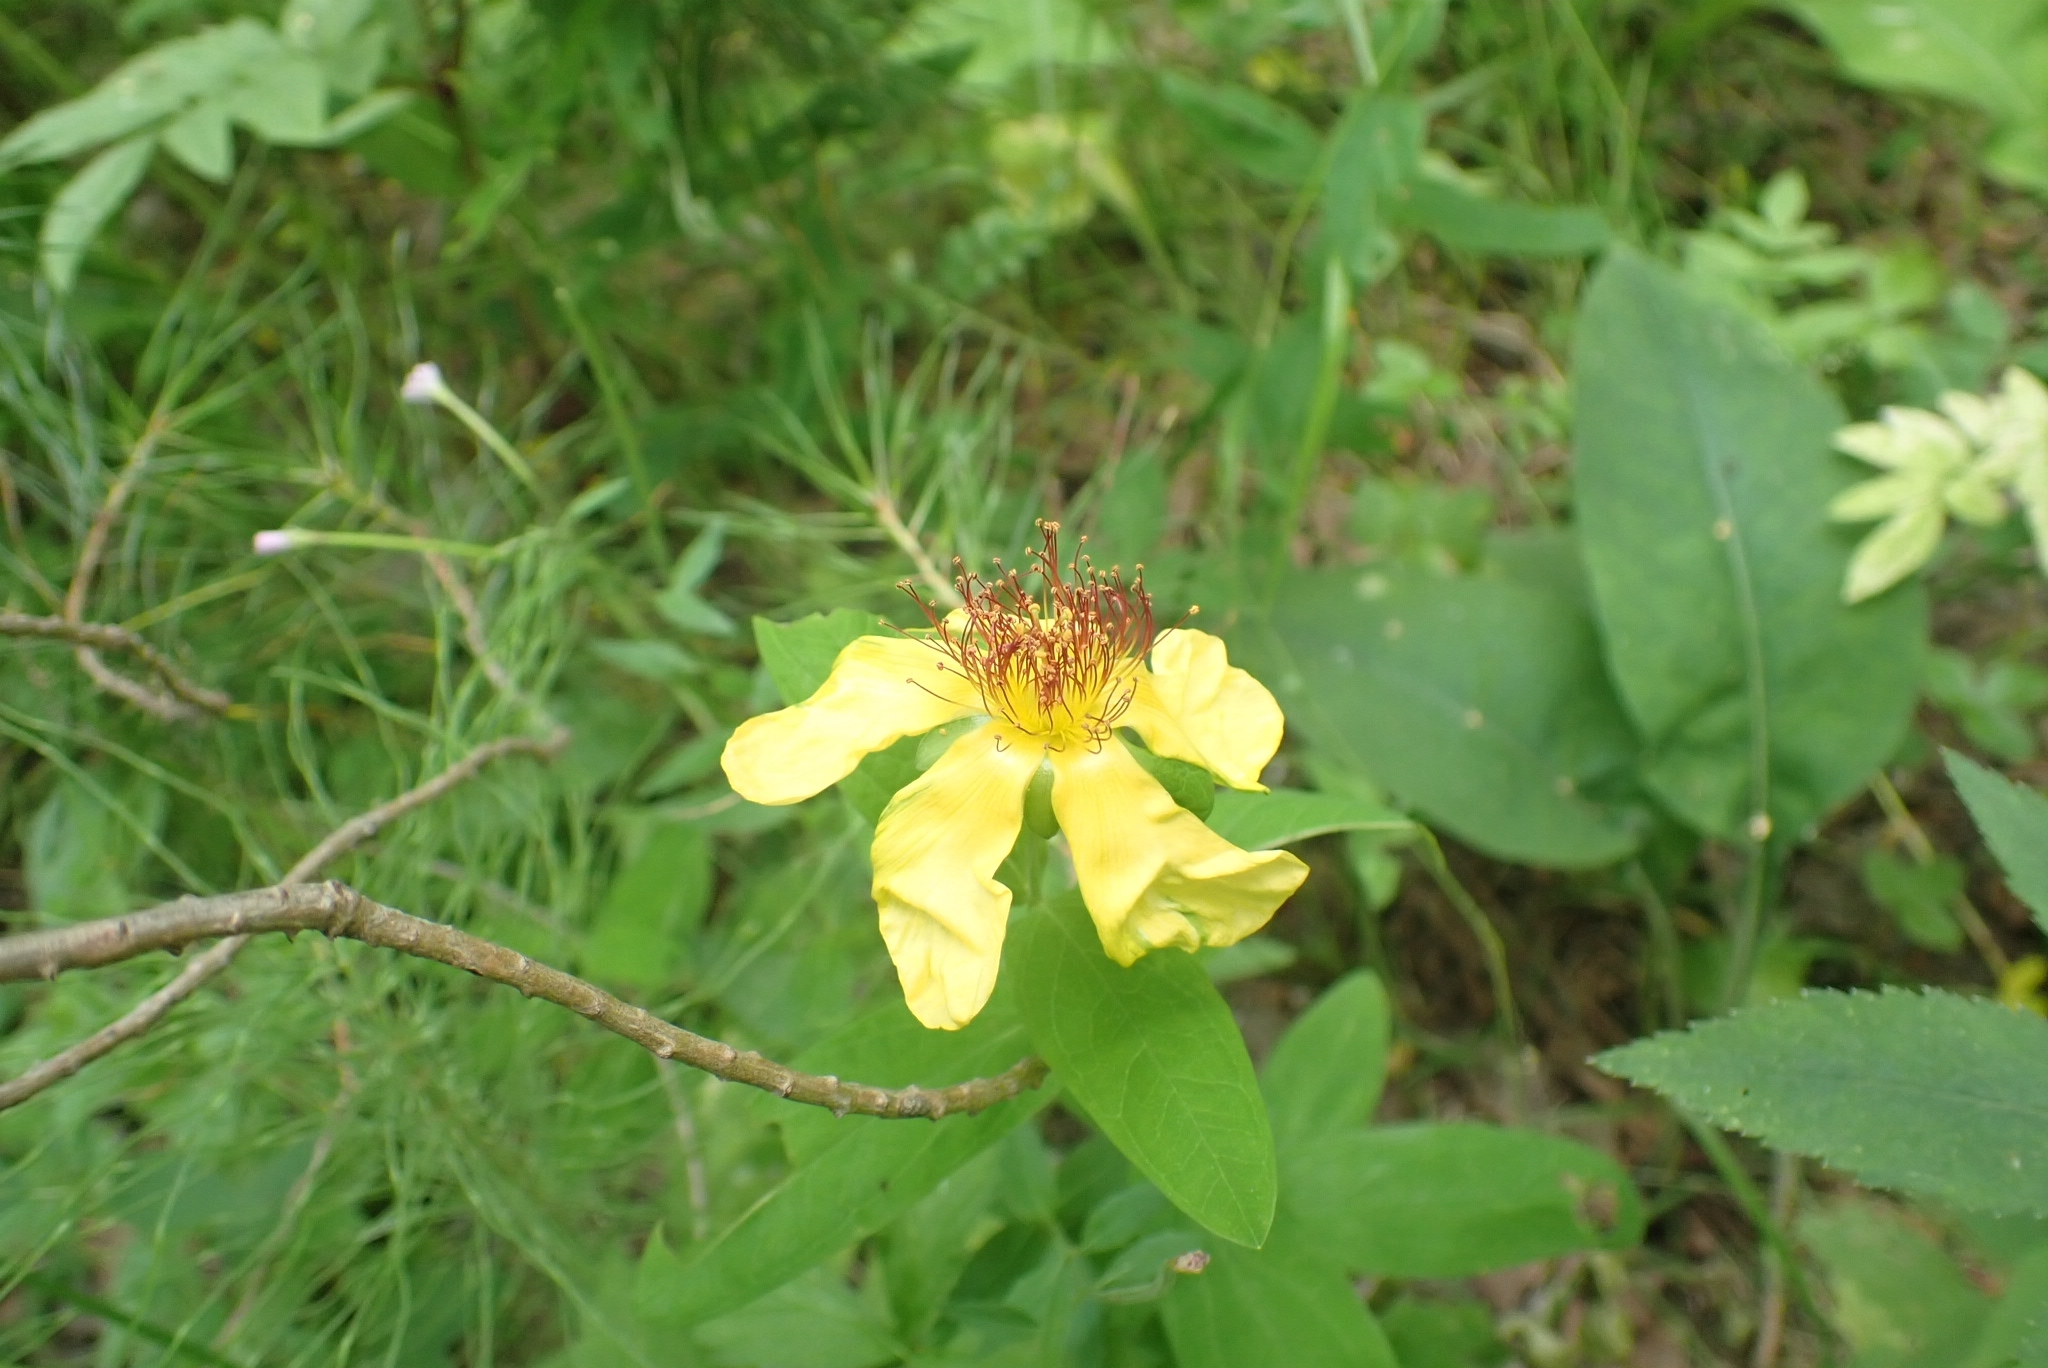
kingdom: Plantae
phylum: Tracheophyta
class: Magnoliopsida
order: Malpighiales
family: Hypericaceae
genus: Hypericum
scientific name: Hypericum ascyron
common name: Giant st. john's-wort
